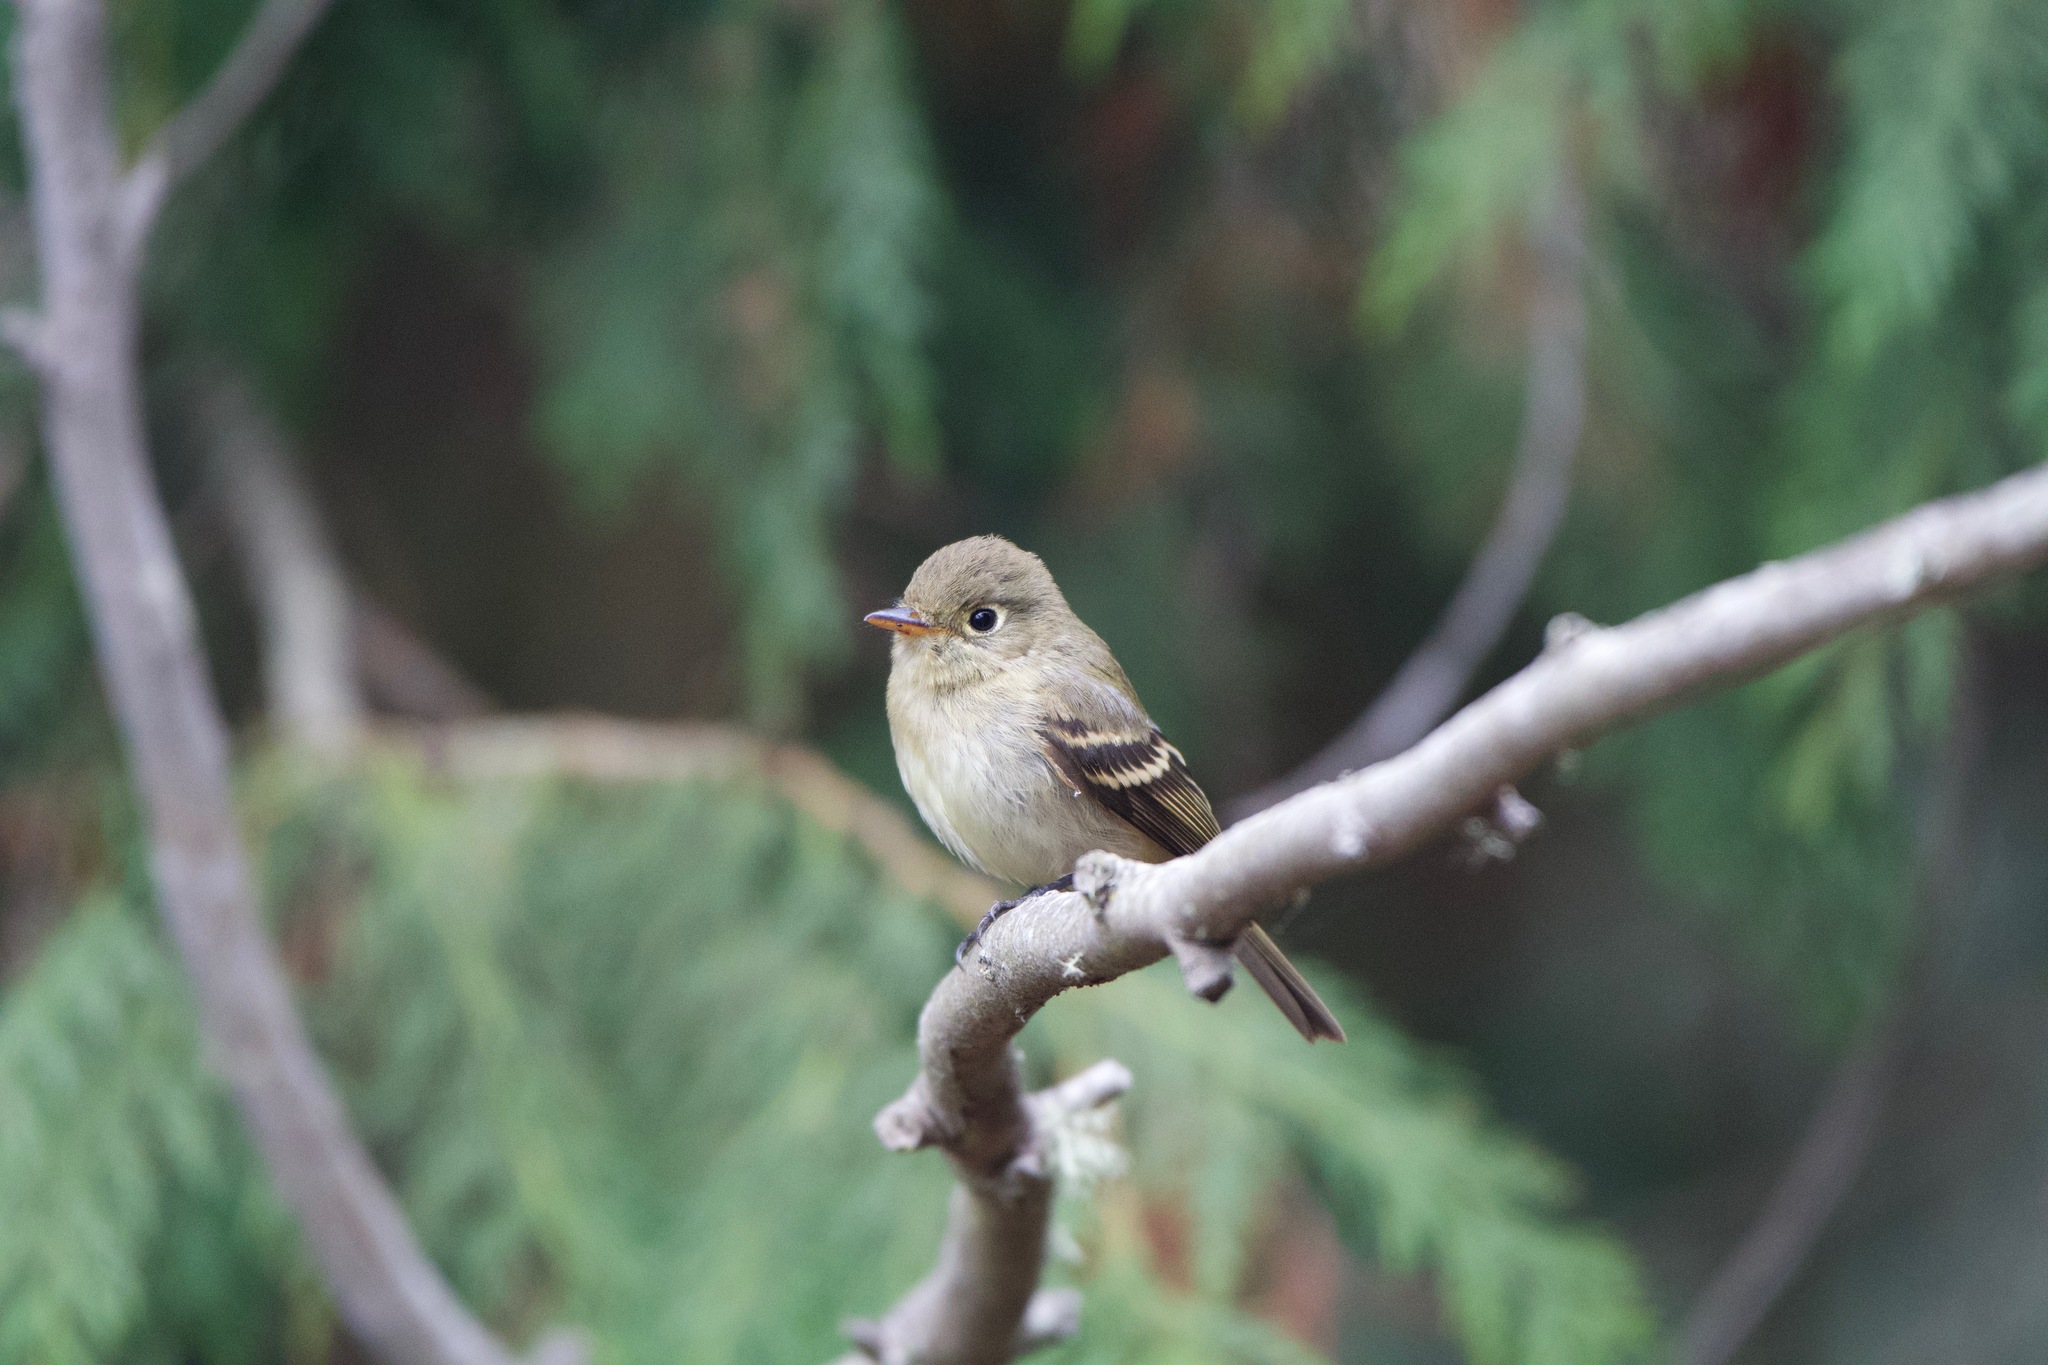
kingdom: Animalia
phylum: Chordata
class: Aves
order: Passeriformes
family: Tyrannidae
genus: Empidonax
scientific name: Empidonax difficilis
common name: Pacific-slope flycatcher
